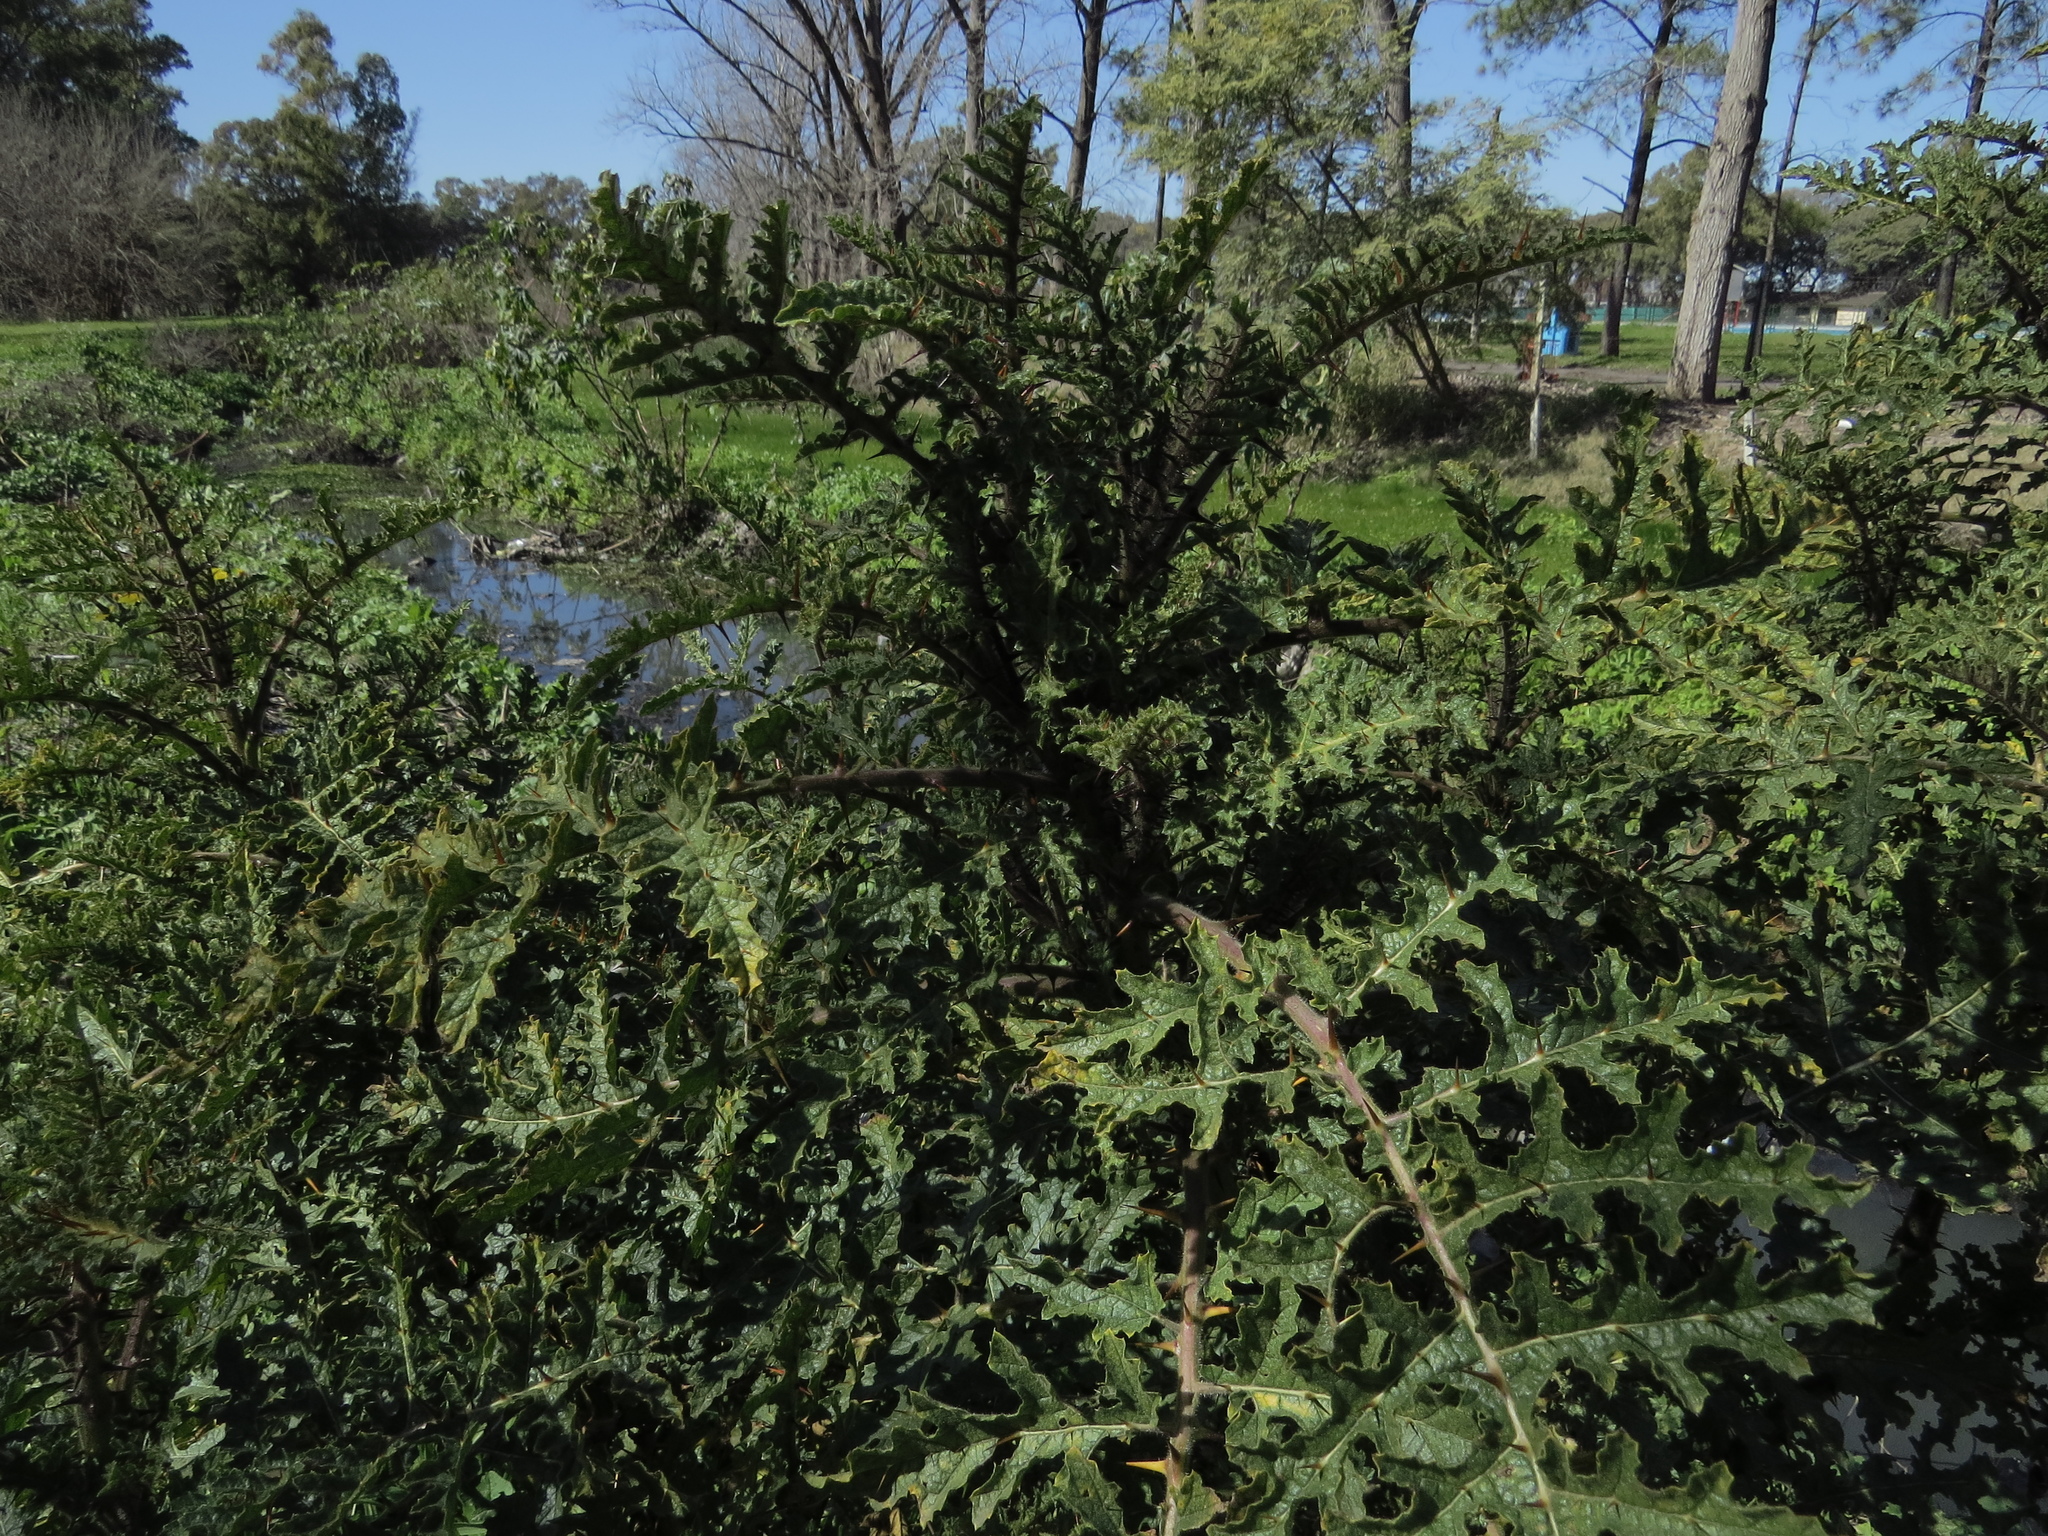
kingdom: Plantae
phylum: Tracheophyta
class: Magnoliopsida
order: Solanales
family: Solanaceae
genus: Solanum
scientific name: Solanum sisymbriifolium
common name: Red buffalo-bur
